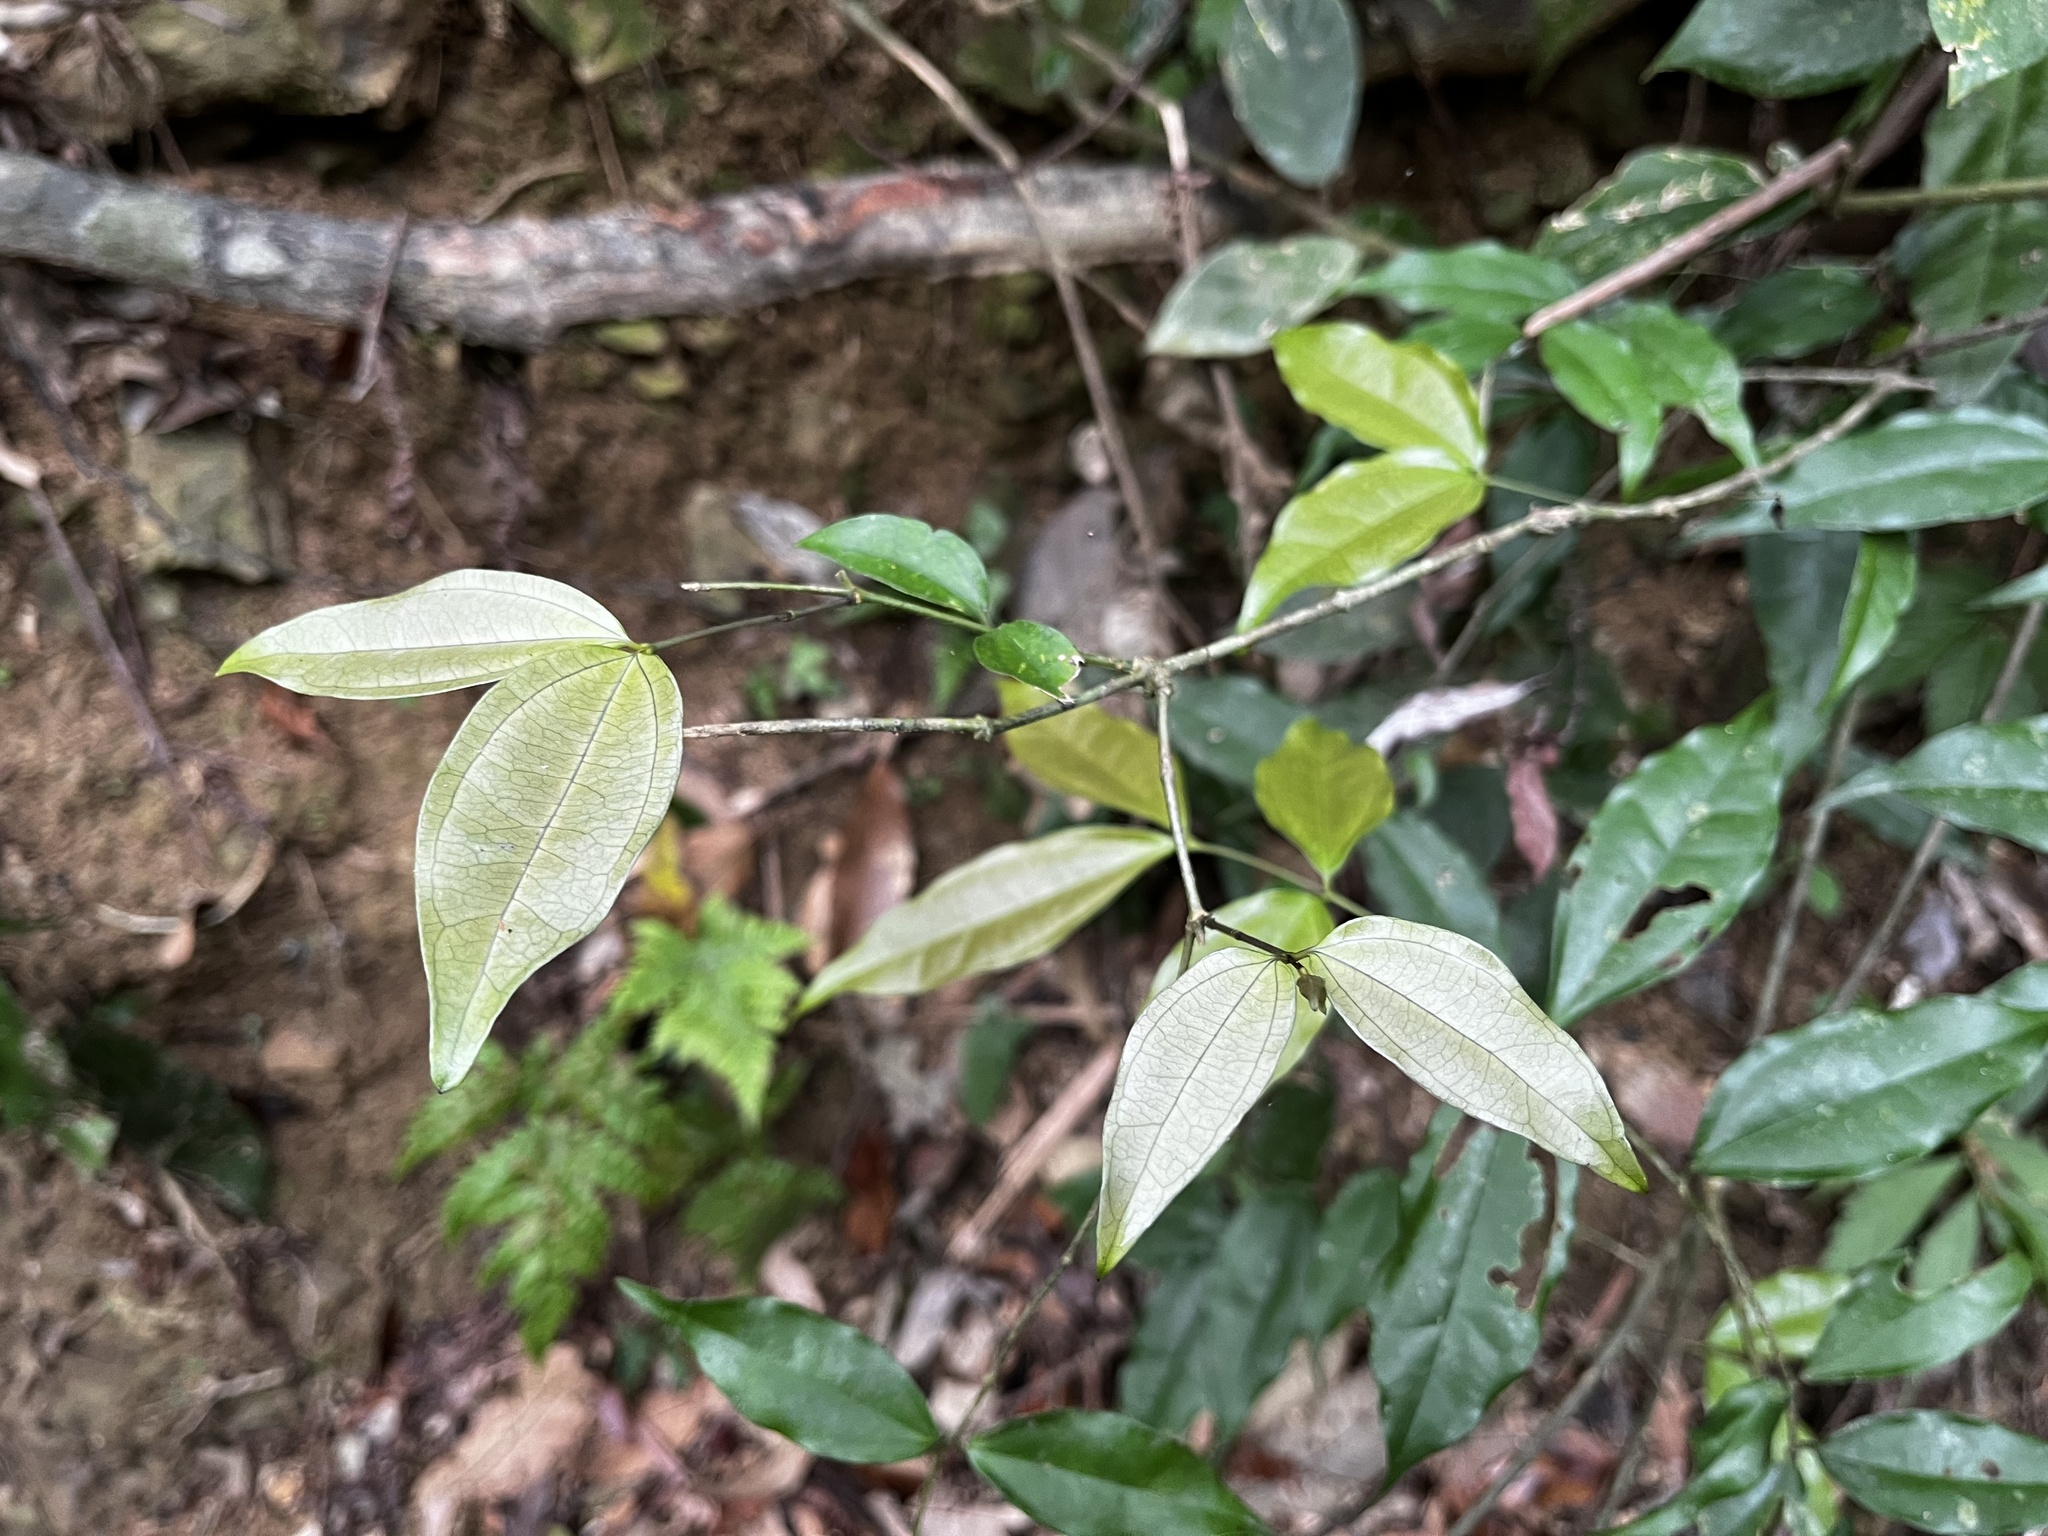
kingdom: Plantae
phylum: Tracheophyta
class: Magnoliopsida
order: Gentianales
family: Loganiaceae
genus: Strychnos
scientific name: Strychnos cathayensis
